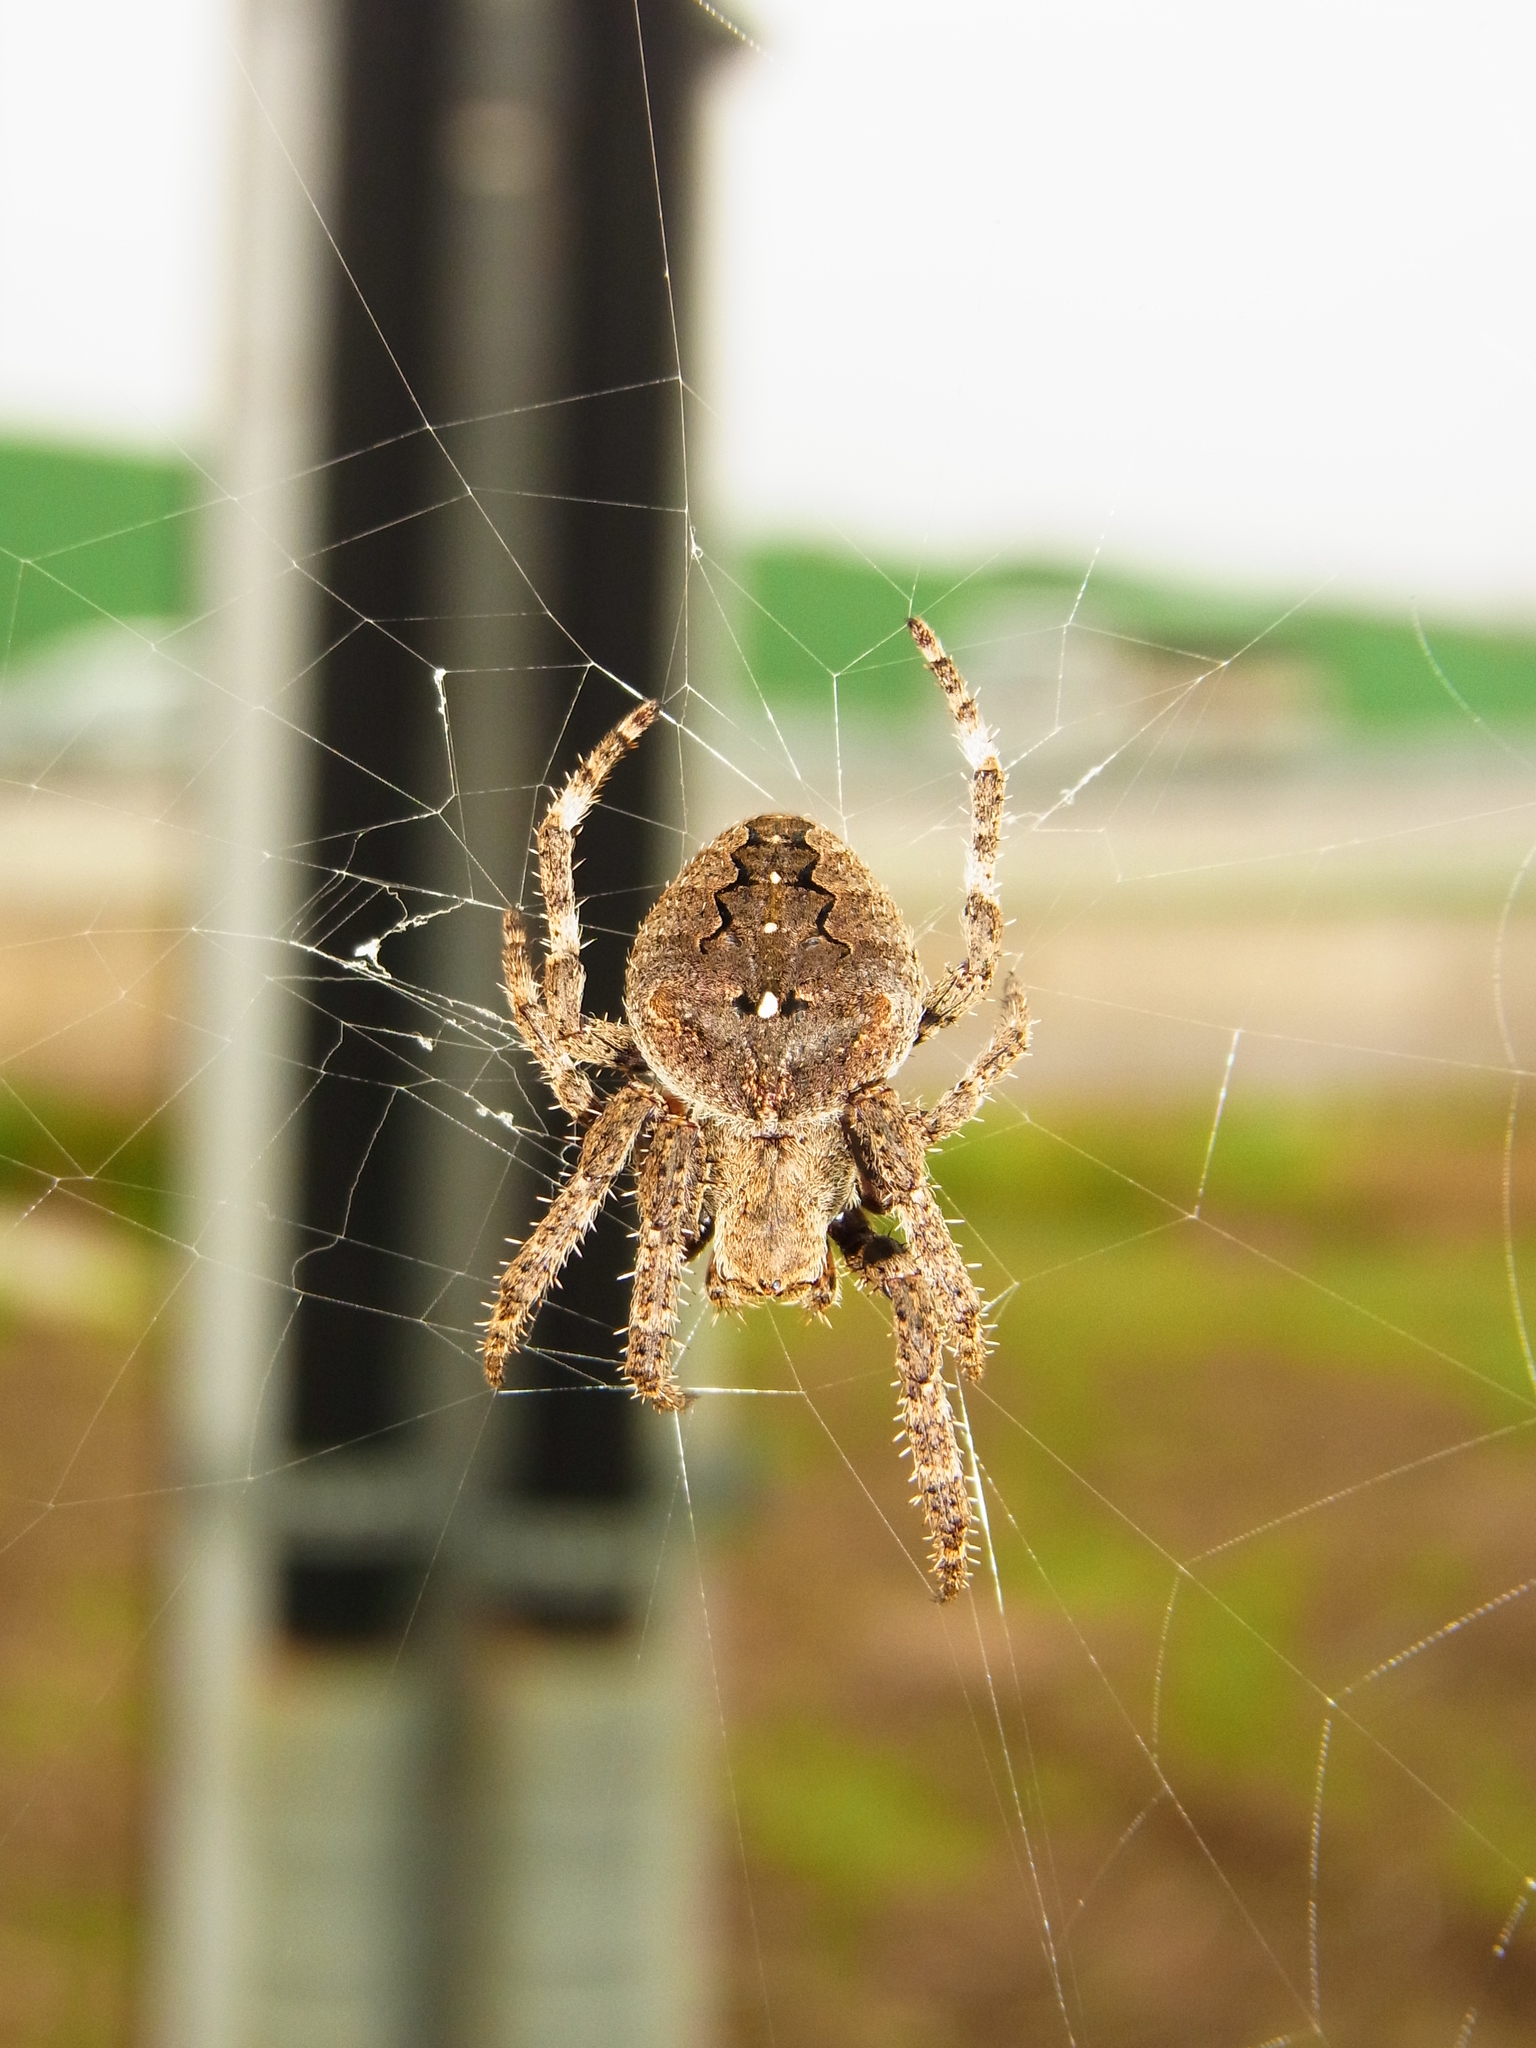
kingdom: Animalia
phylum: Arthropoda
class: Arachnida
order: Araneae
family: Araneidae
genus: Araneus
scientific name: Araneus ventricosus
